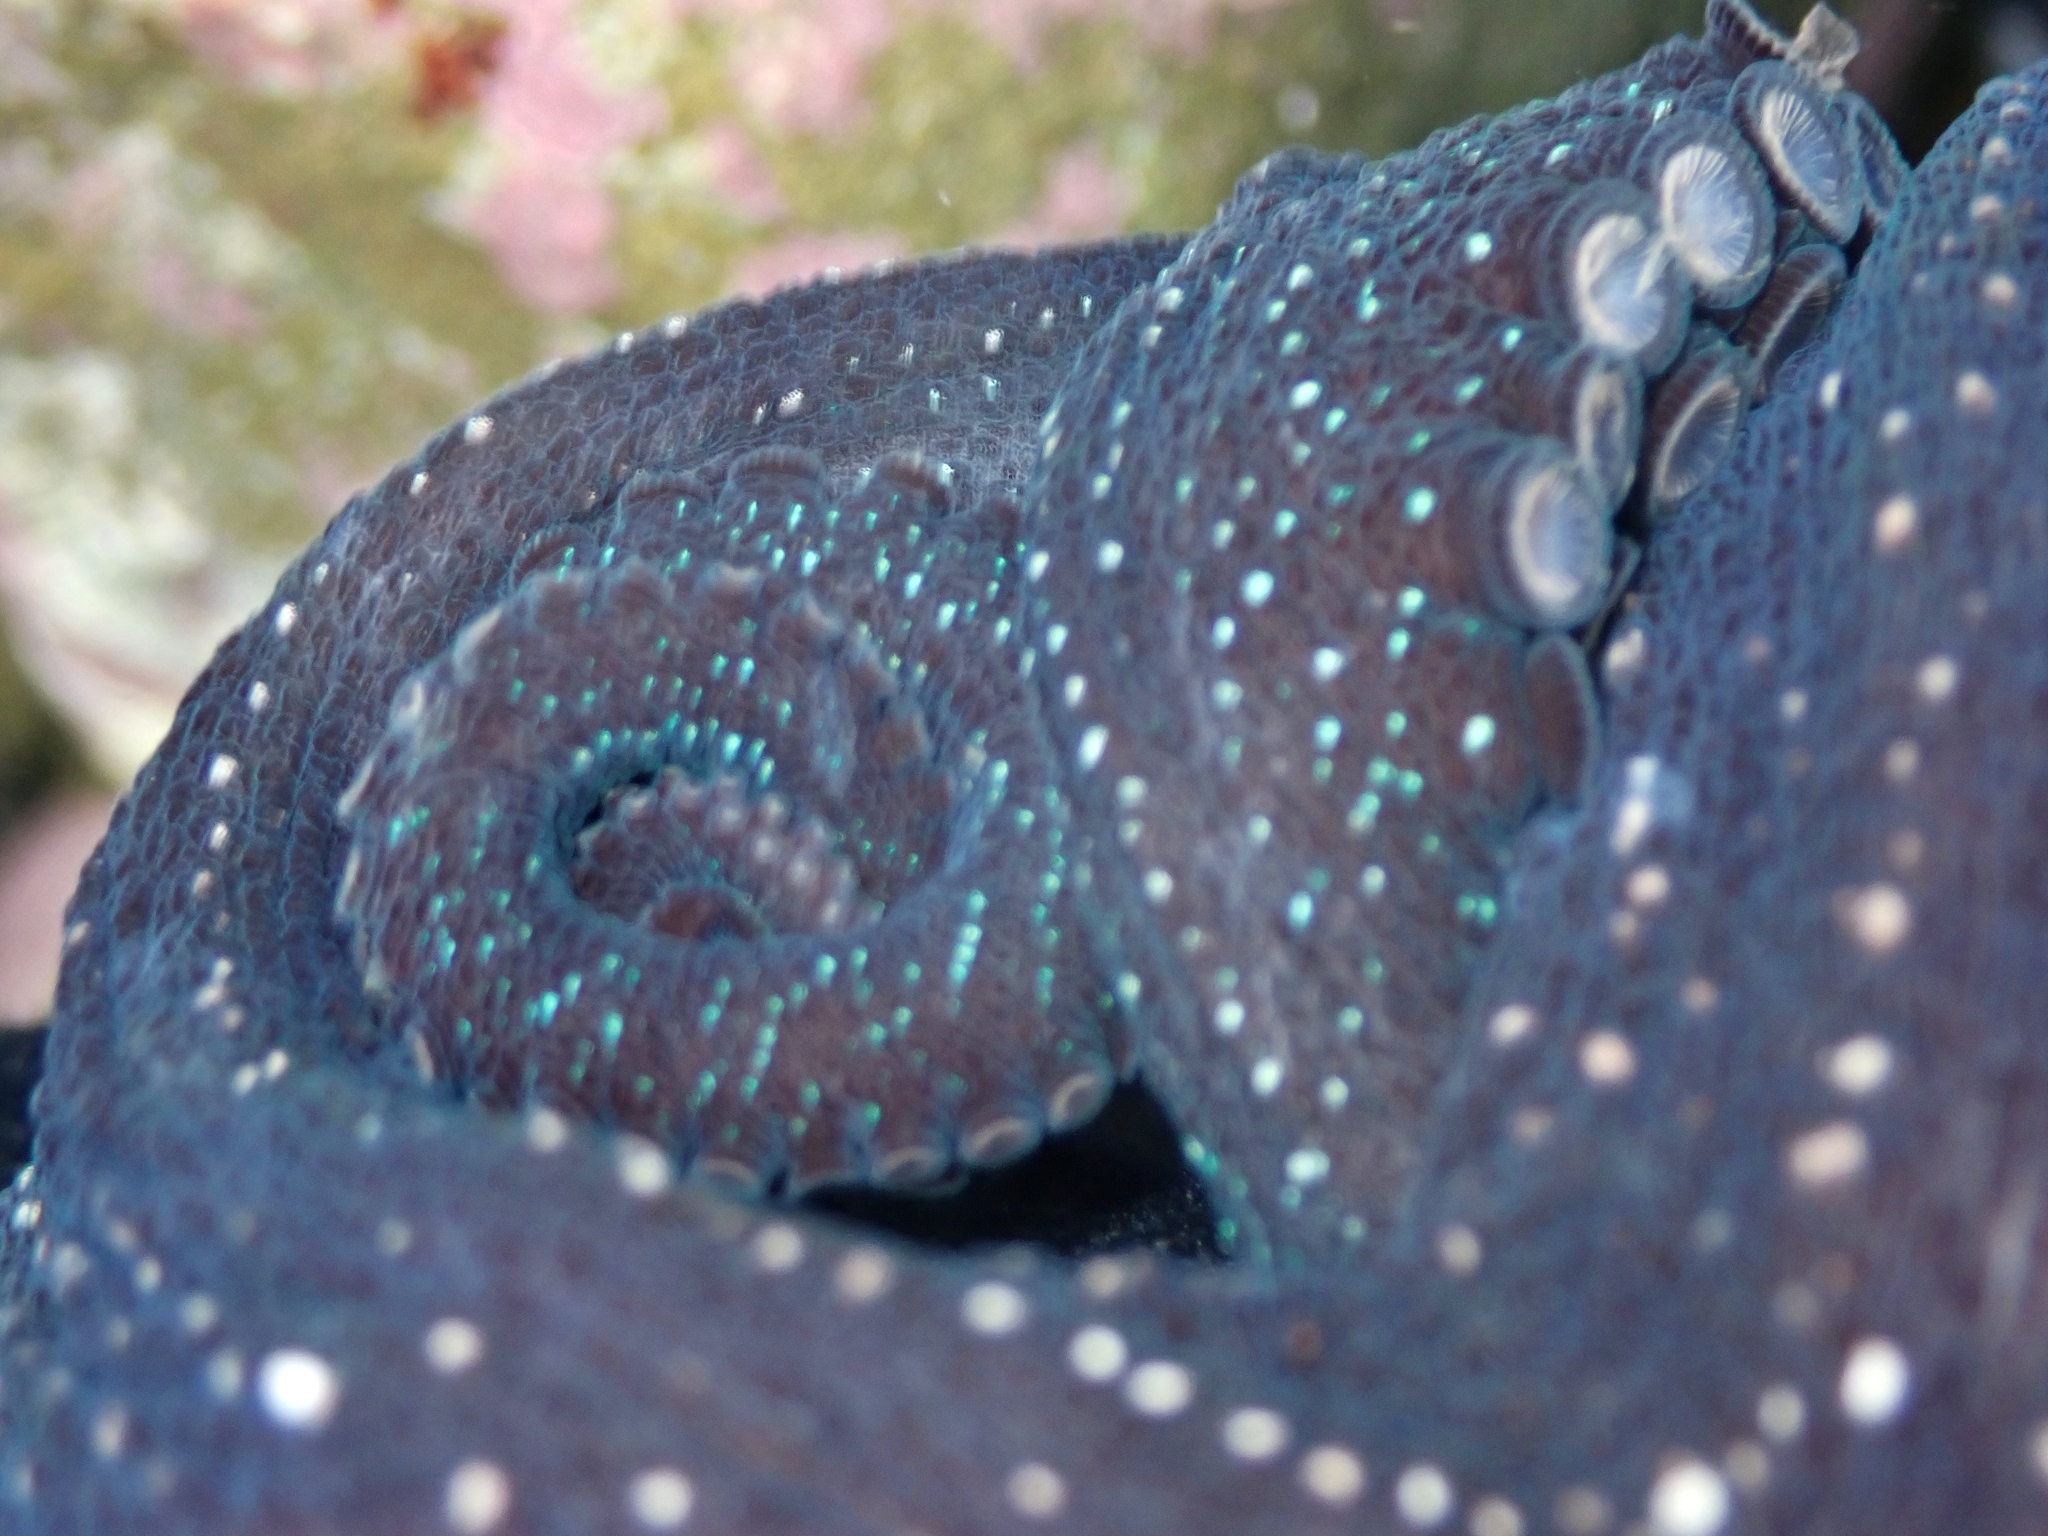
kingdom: Animalia
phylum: Mollusca
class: Cephalopoda
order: Octopoda
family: Octopodidae
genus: Macroctopus
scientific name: Macroctopus maorum
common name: Maori octopus
